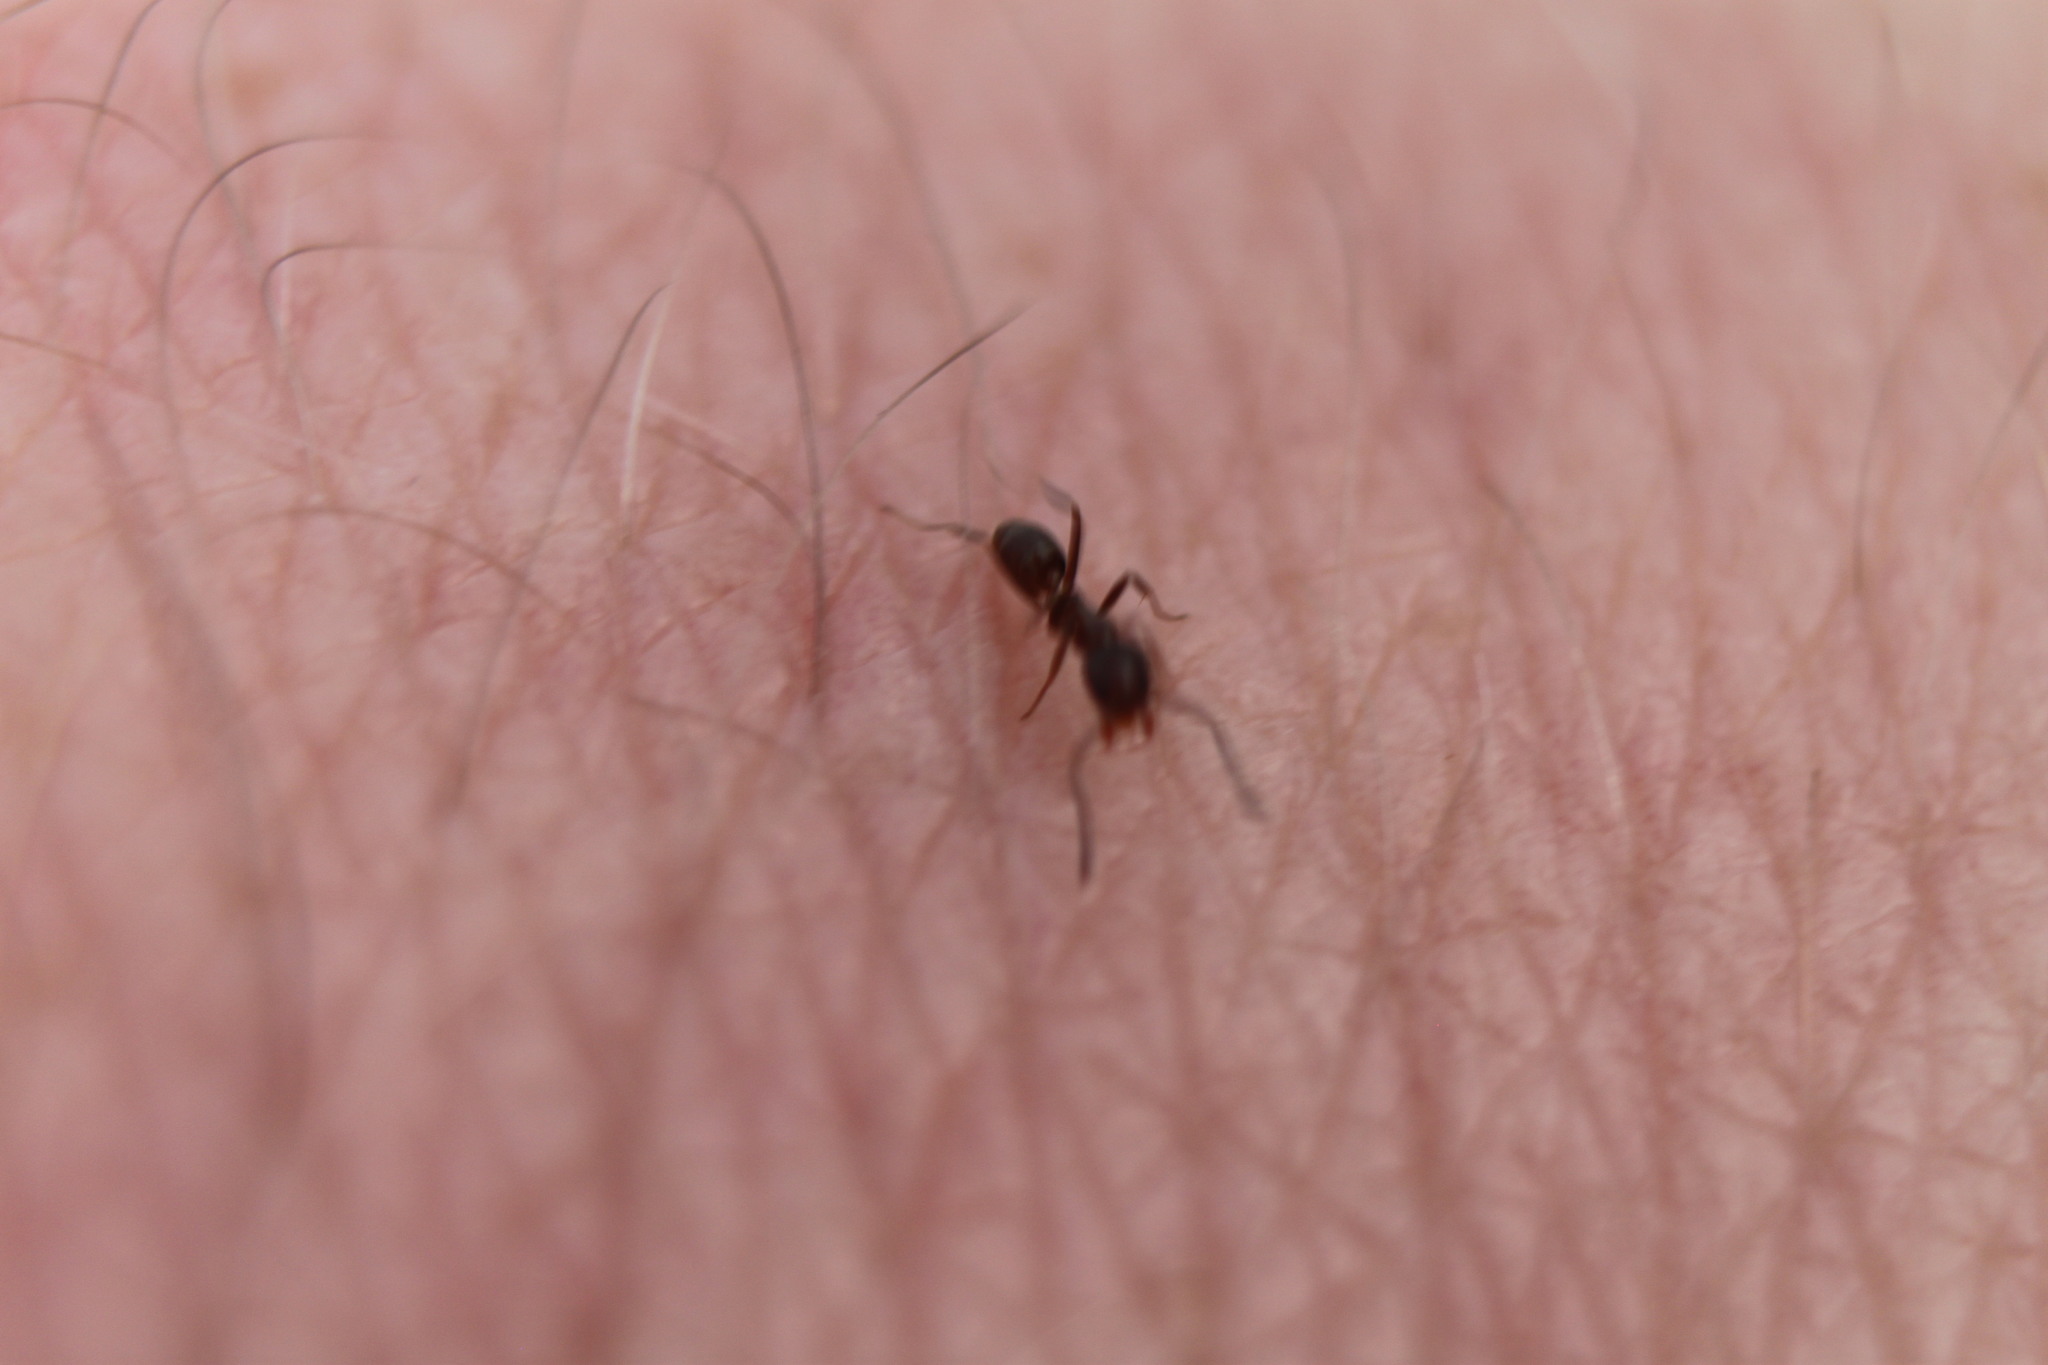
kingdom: Animalia
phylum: Arthropoda
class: Insecta
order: Hymenoptera
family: Formicidae
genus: Linepithema
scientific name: Linepithema humile
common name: Argentine ant
